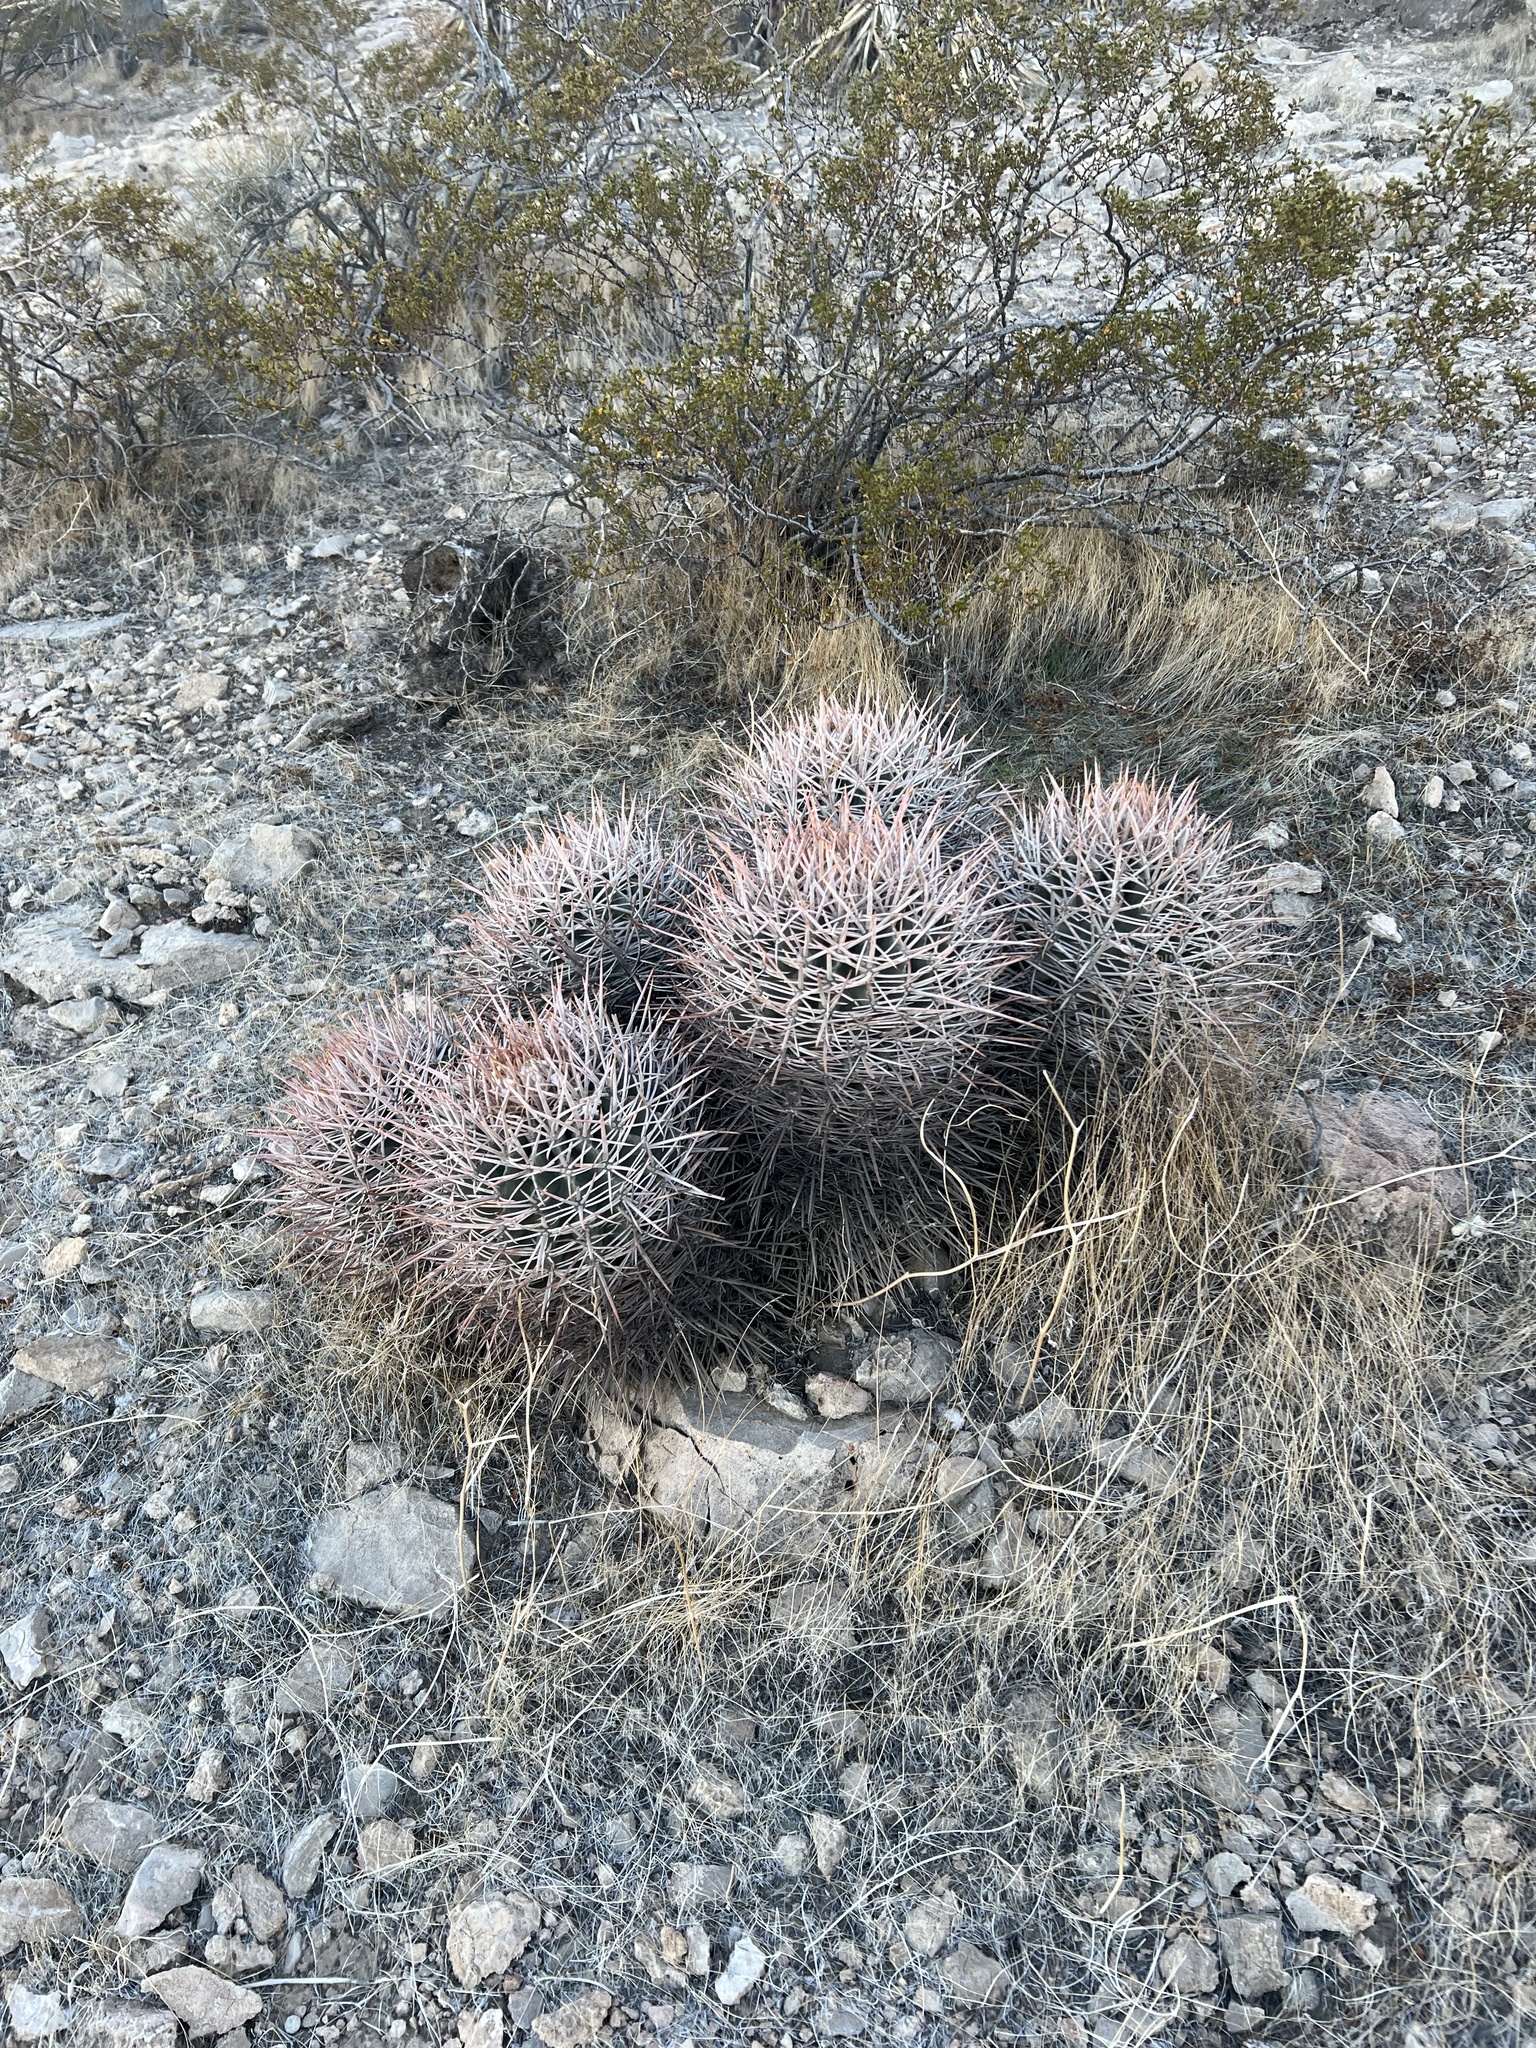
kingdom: Plantae
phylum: Tracheophyta
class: Magnoliopsida
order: Caryophyllales
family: Cactaceae
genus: Echinocactus
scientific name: Echinocactus polycephalus
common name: Cottontop cactus
